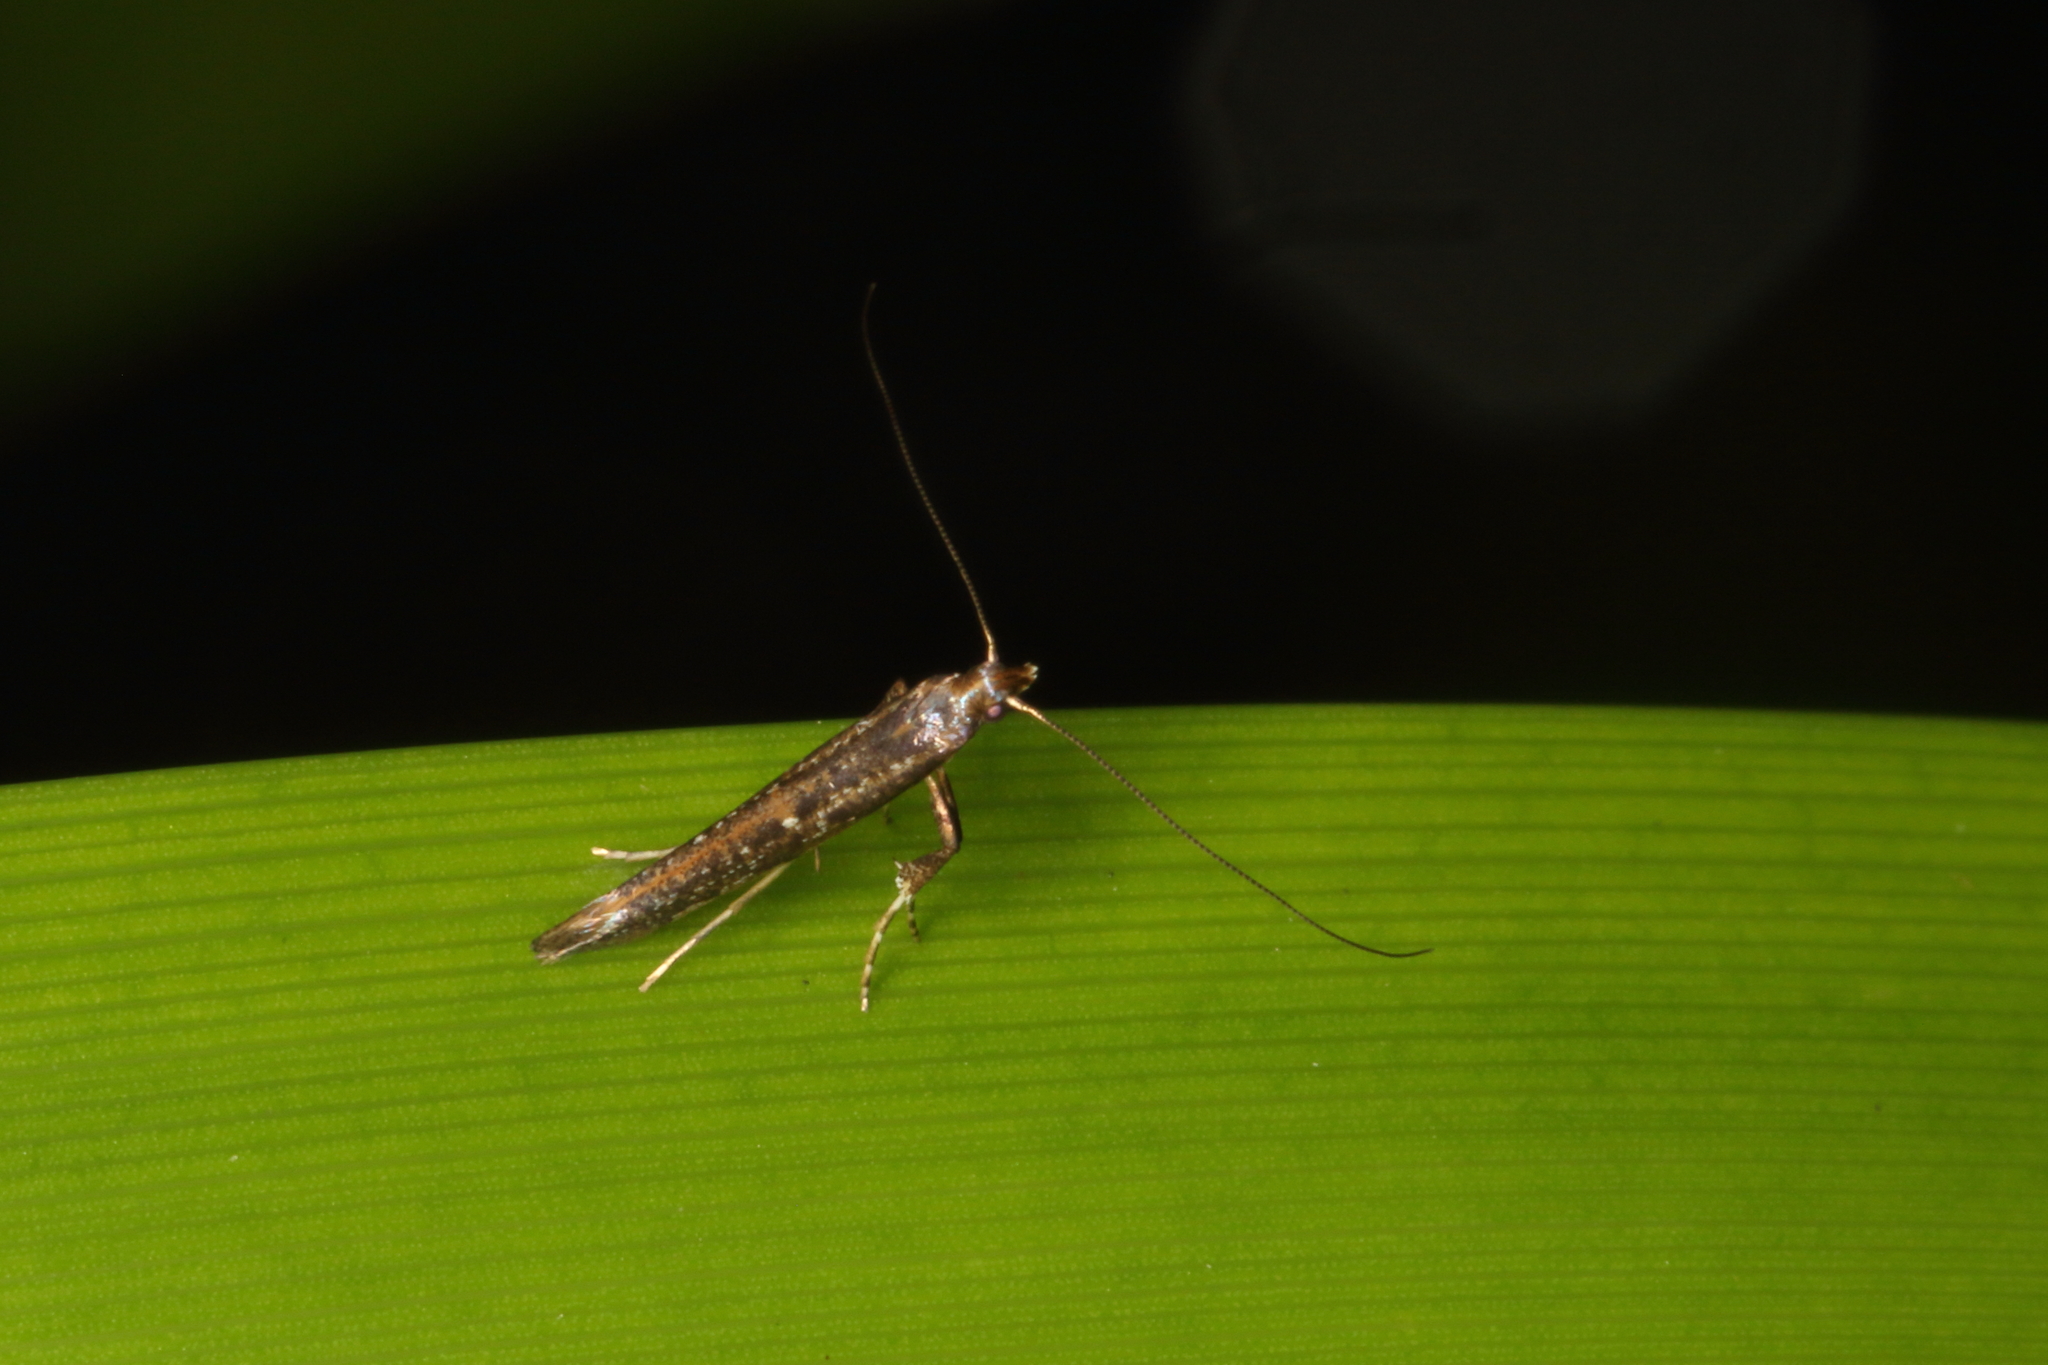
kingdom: Animalia
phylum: Arthropoda
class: Insecta
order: Lepidoptera
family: Gracillariidae
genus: Caloptilia
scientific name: Caloptilia linearis
